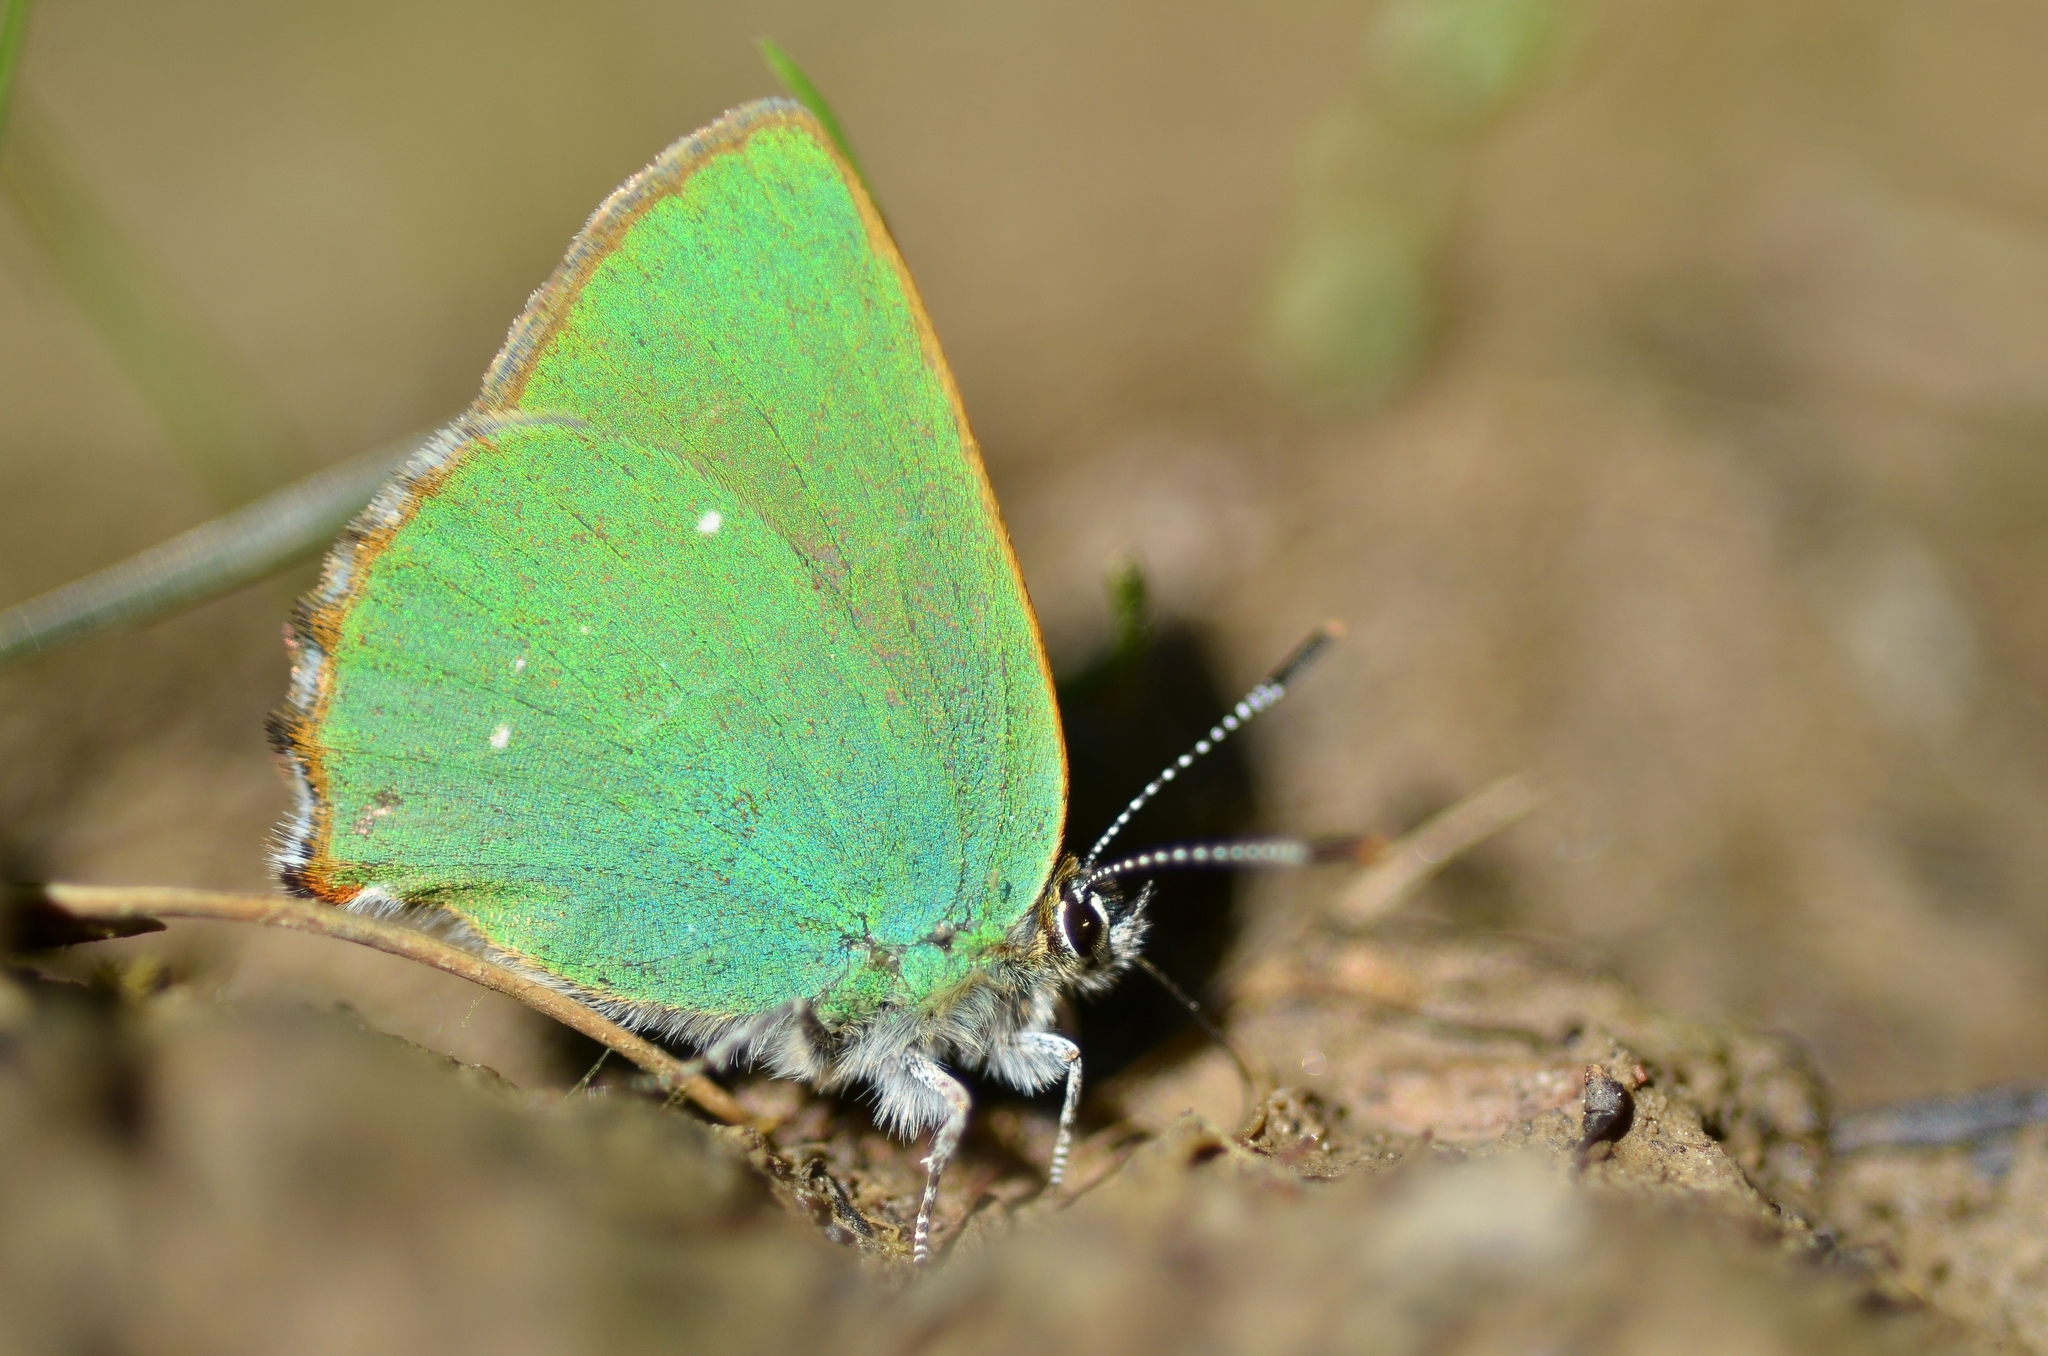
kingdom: Animalia
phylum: Arthropoda
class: Insecta
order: Lepidoptera
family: Lycaenidae
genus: Callophrys
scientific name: Callophrys rubi
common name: Green hairstreak
